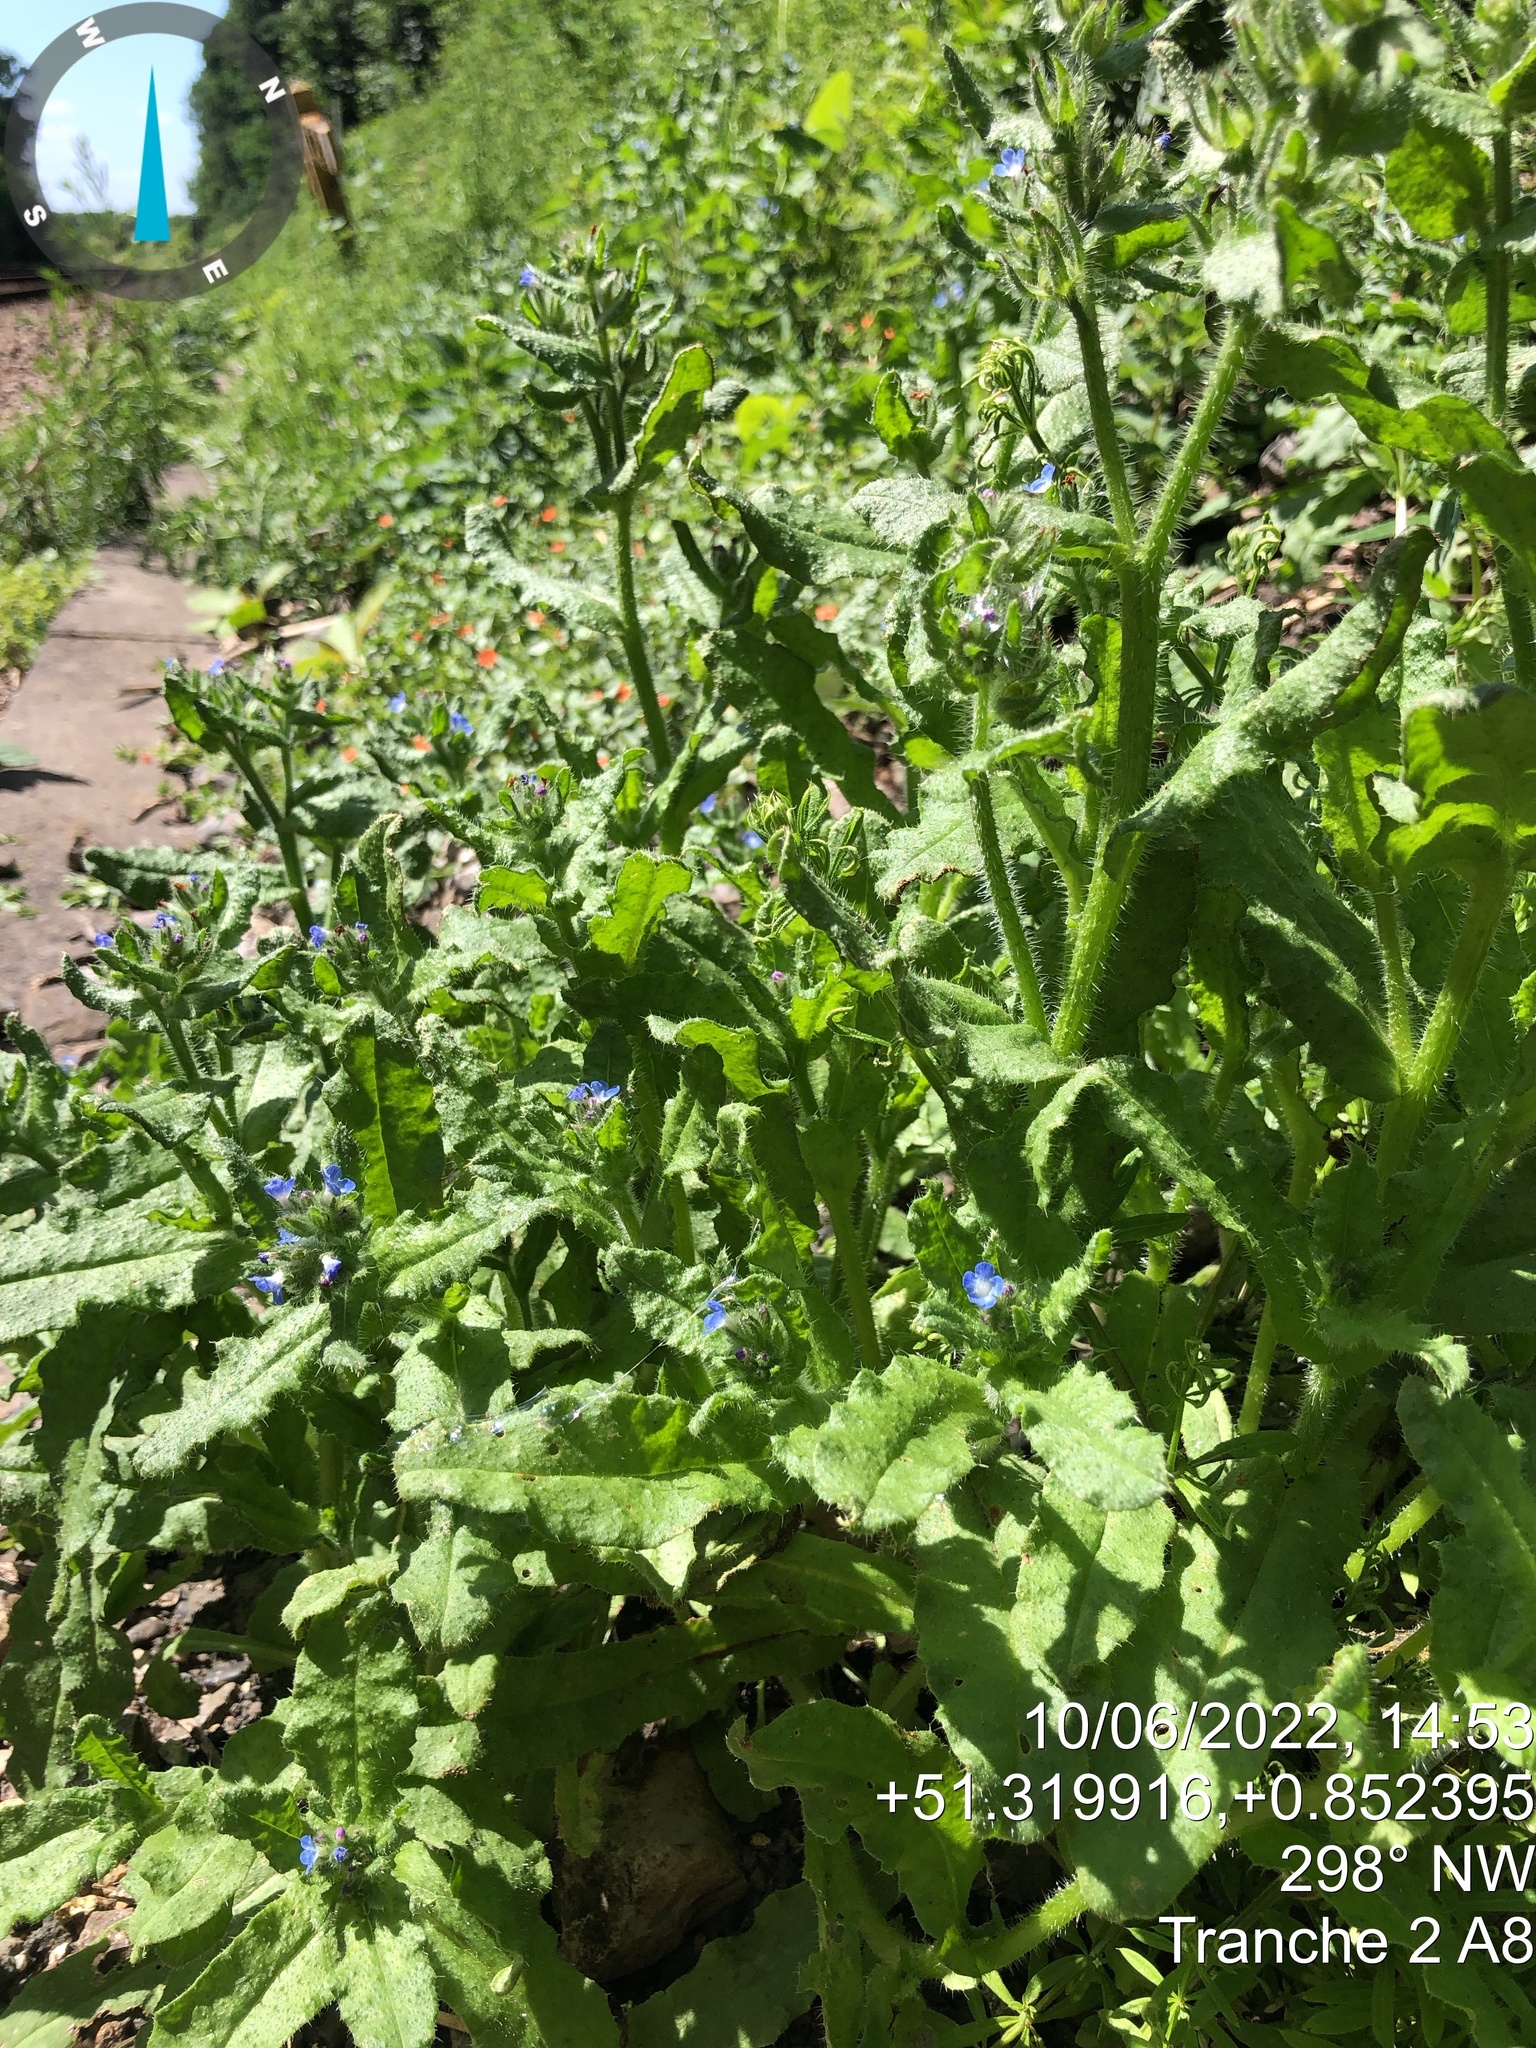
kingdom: Plantae
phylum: Tracheophyta
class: Magnoliopsida
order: Boraginales
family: Boraginaceae
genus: Lycopsis
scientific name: Lycopsis arvensis
